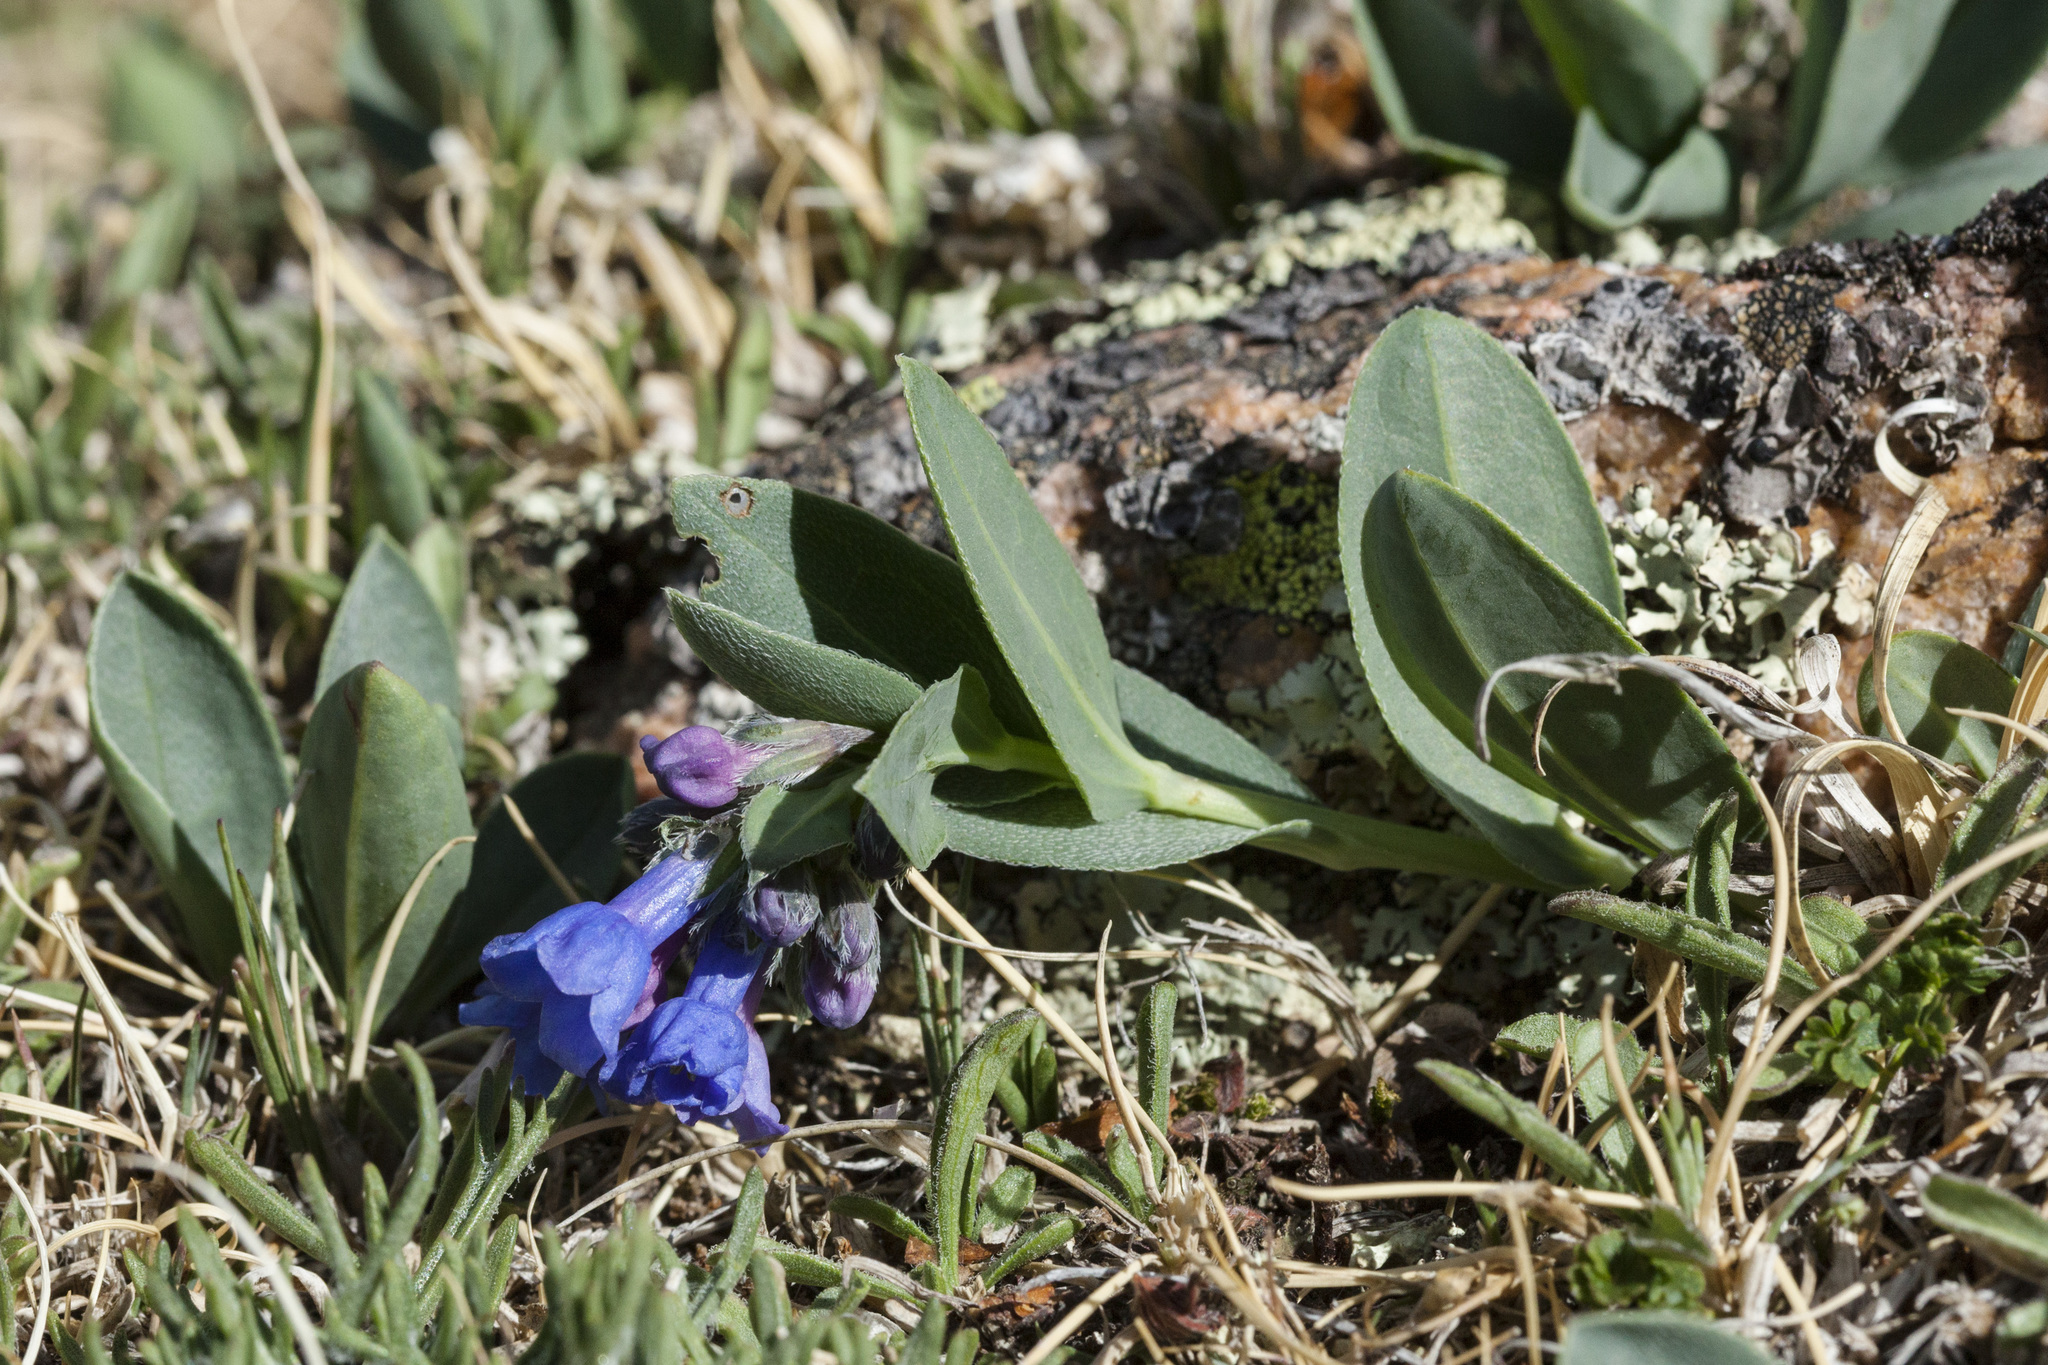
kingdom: Plantae
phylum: Tracheophyta
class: Magnoliopsida
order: Boraginales
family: Boraginaceae
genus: Mertensia
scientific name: Mertensia ovata
